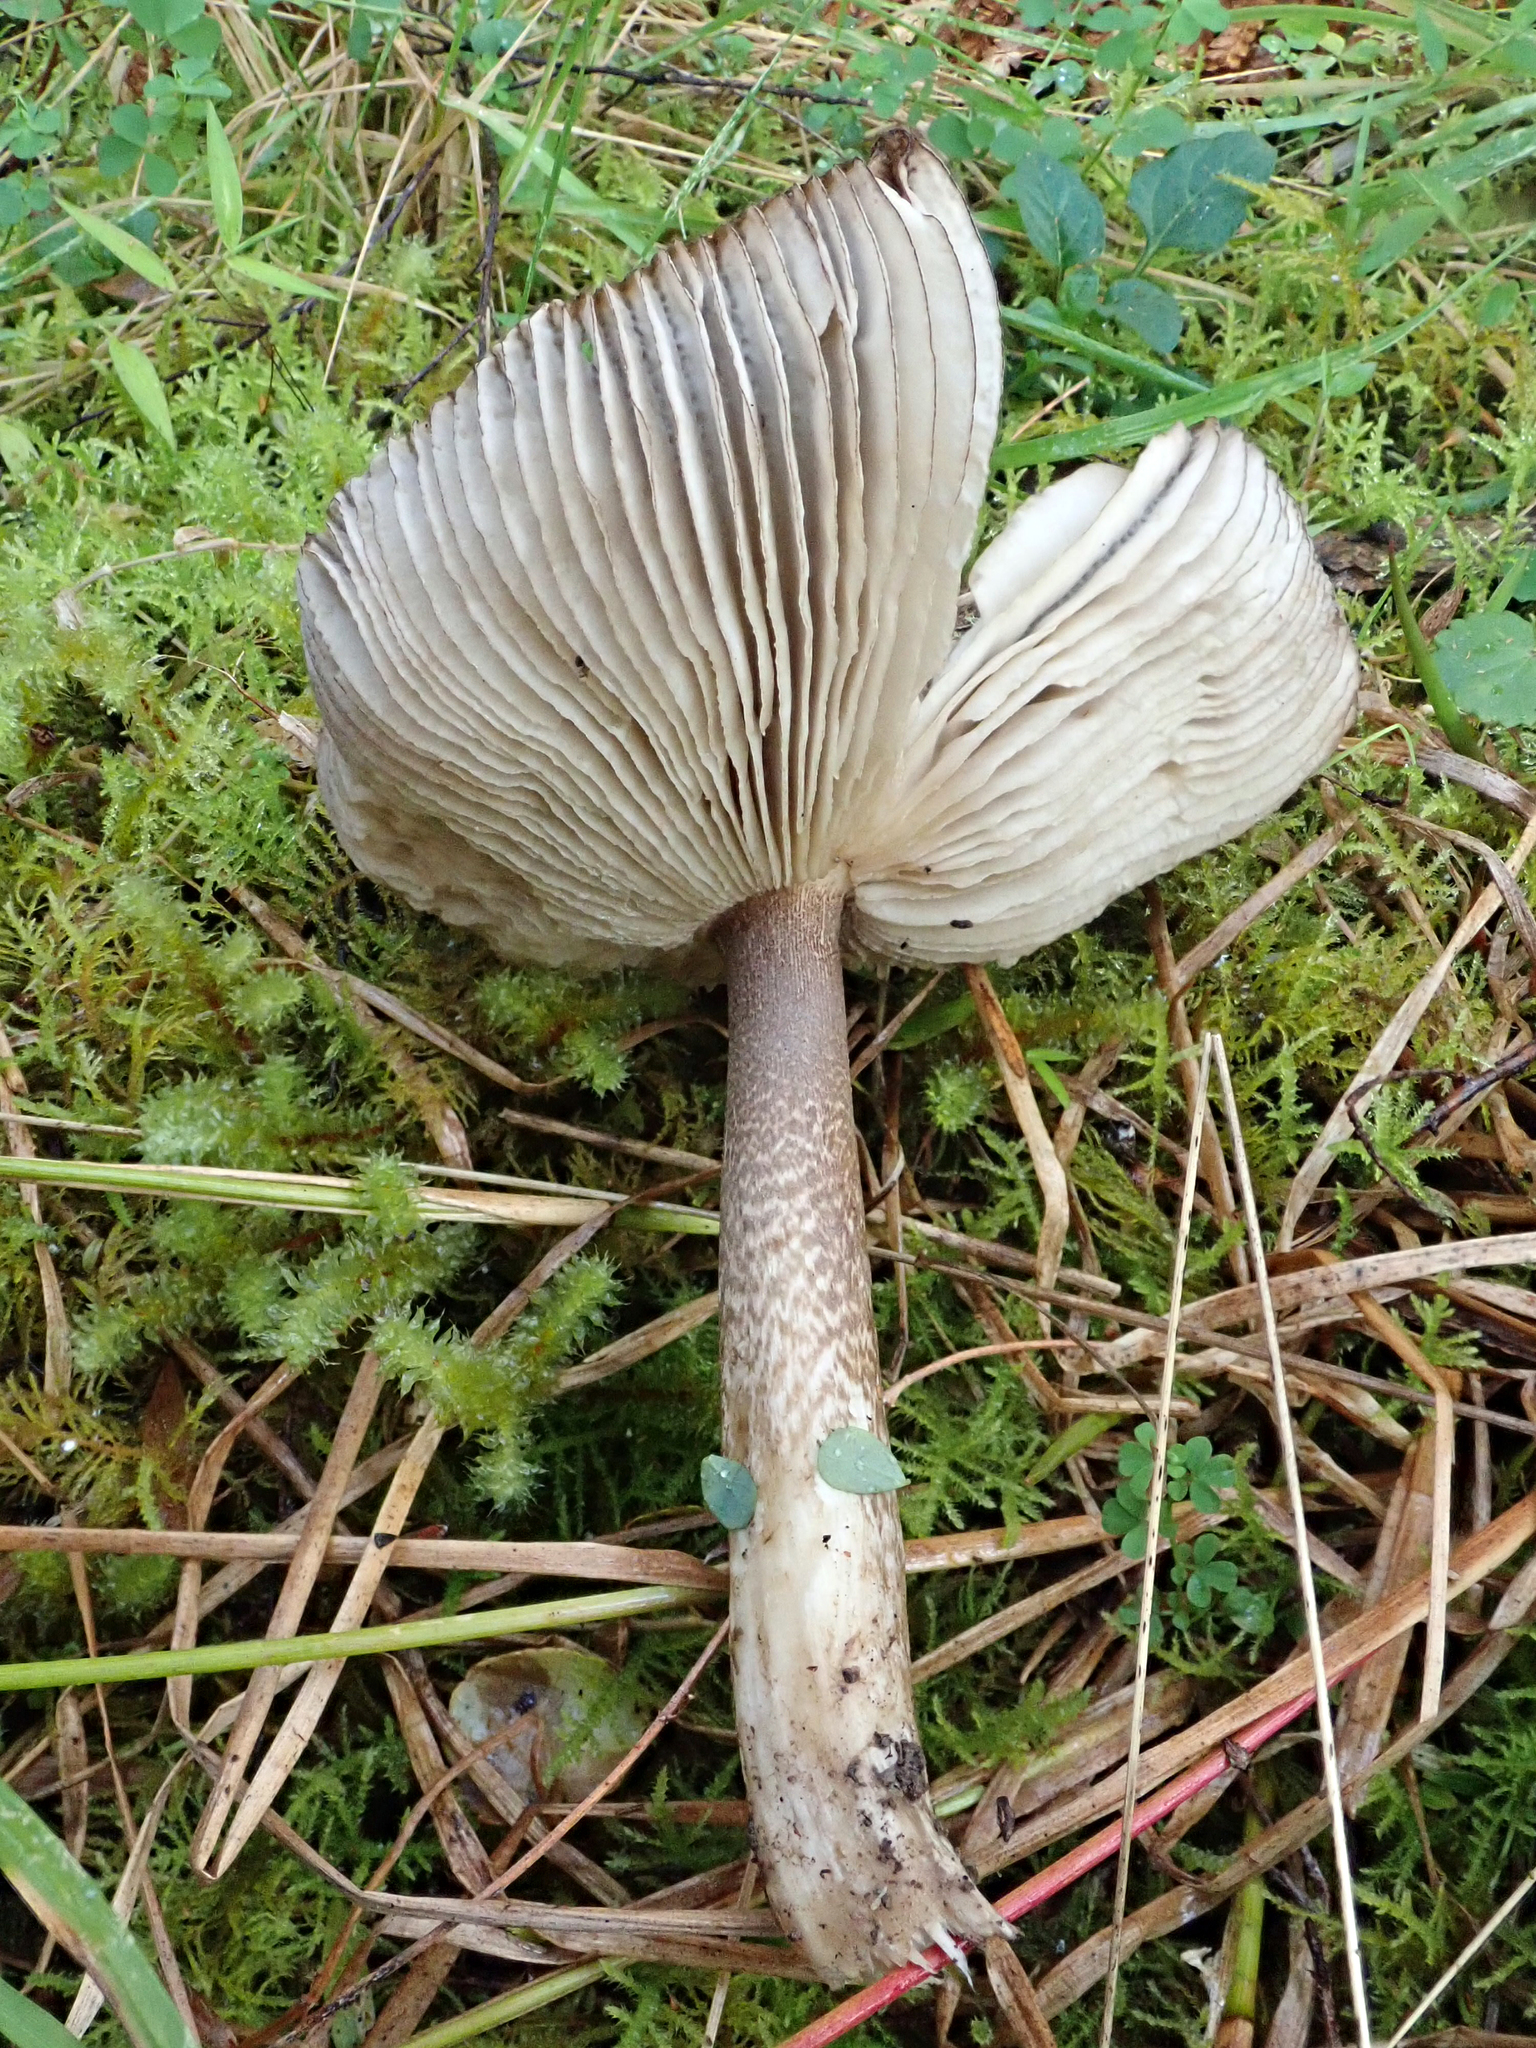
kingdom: Fungi
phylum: Basidiomycota
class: Agaricomycetes
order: Agaricales
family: Amanitaceae
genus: Amanita
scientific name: Amanita pekeoides
